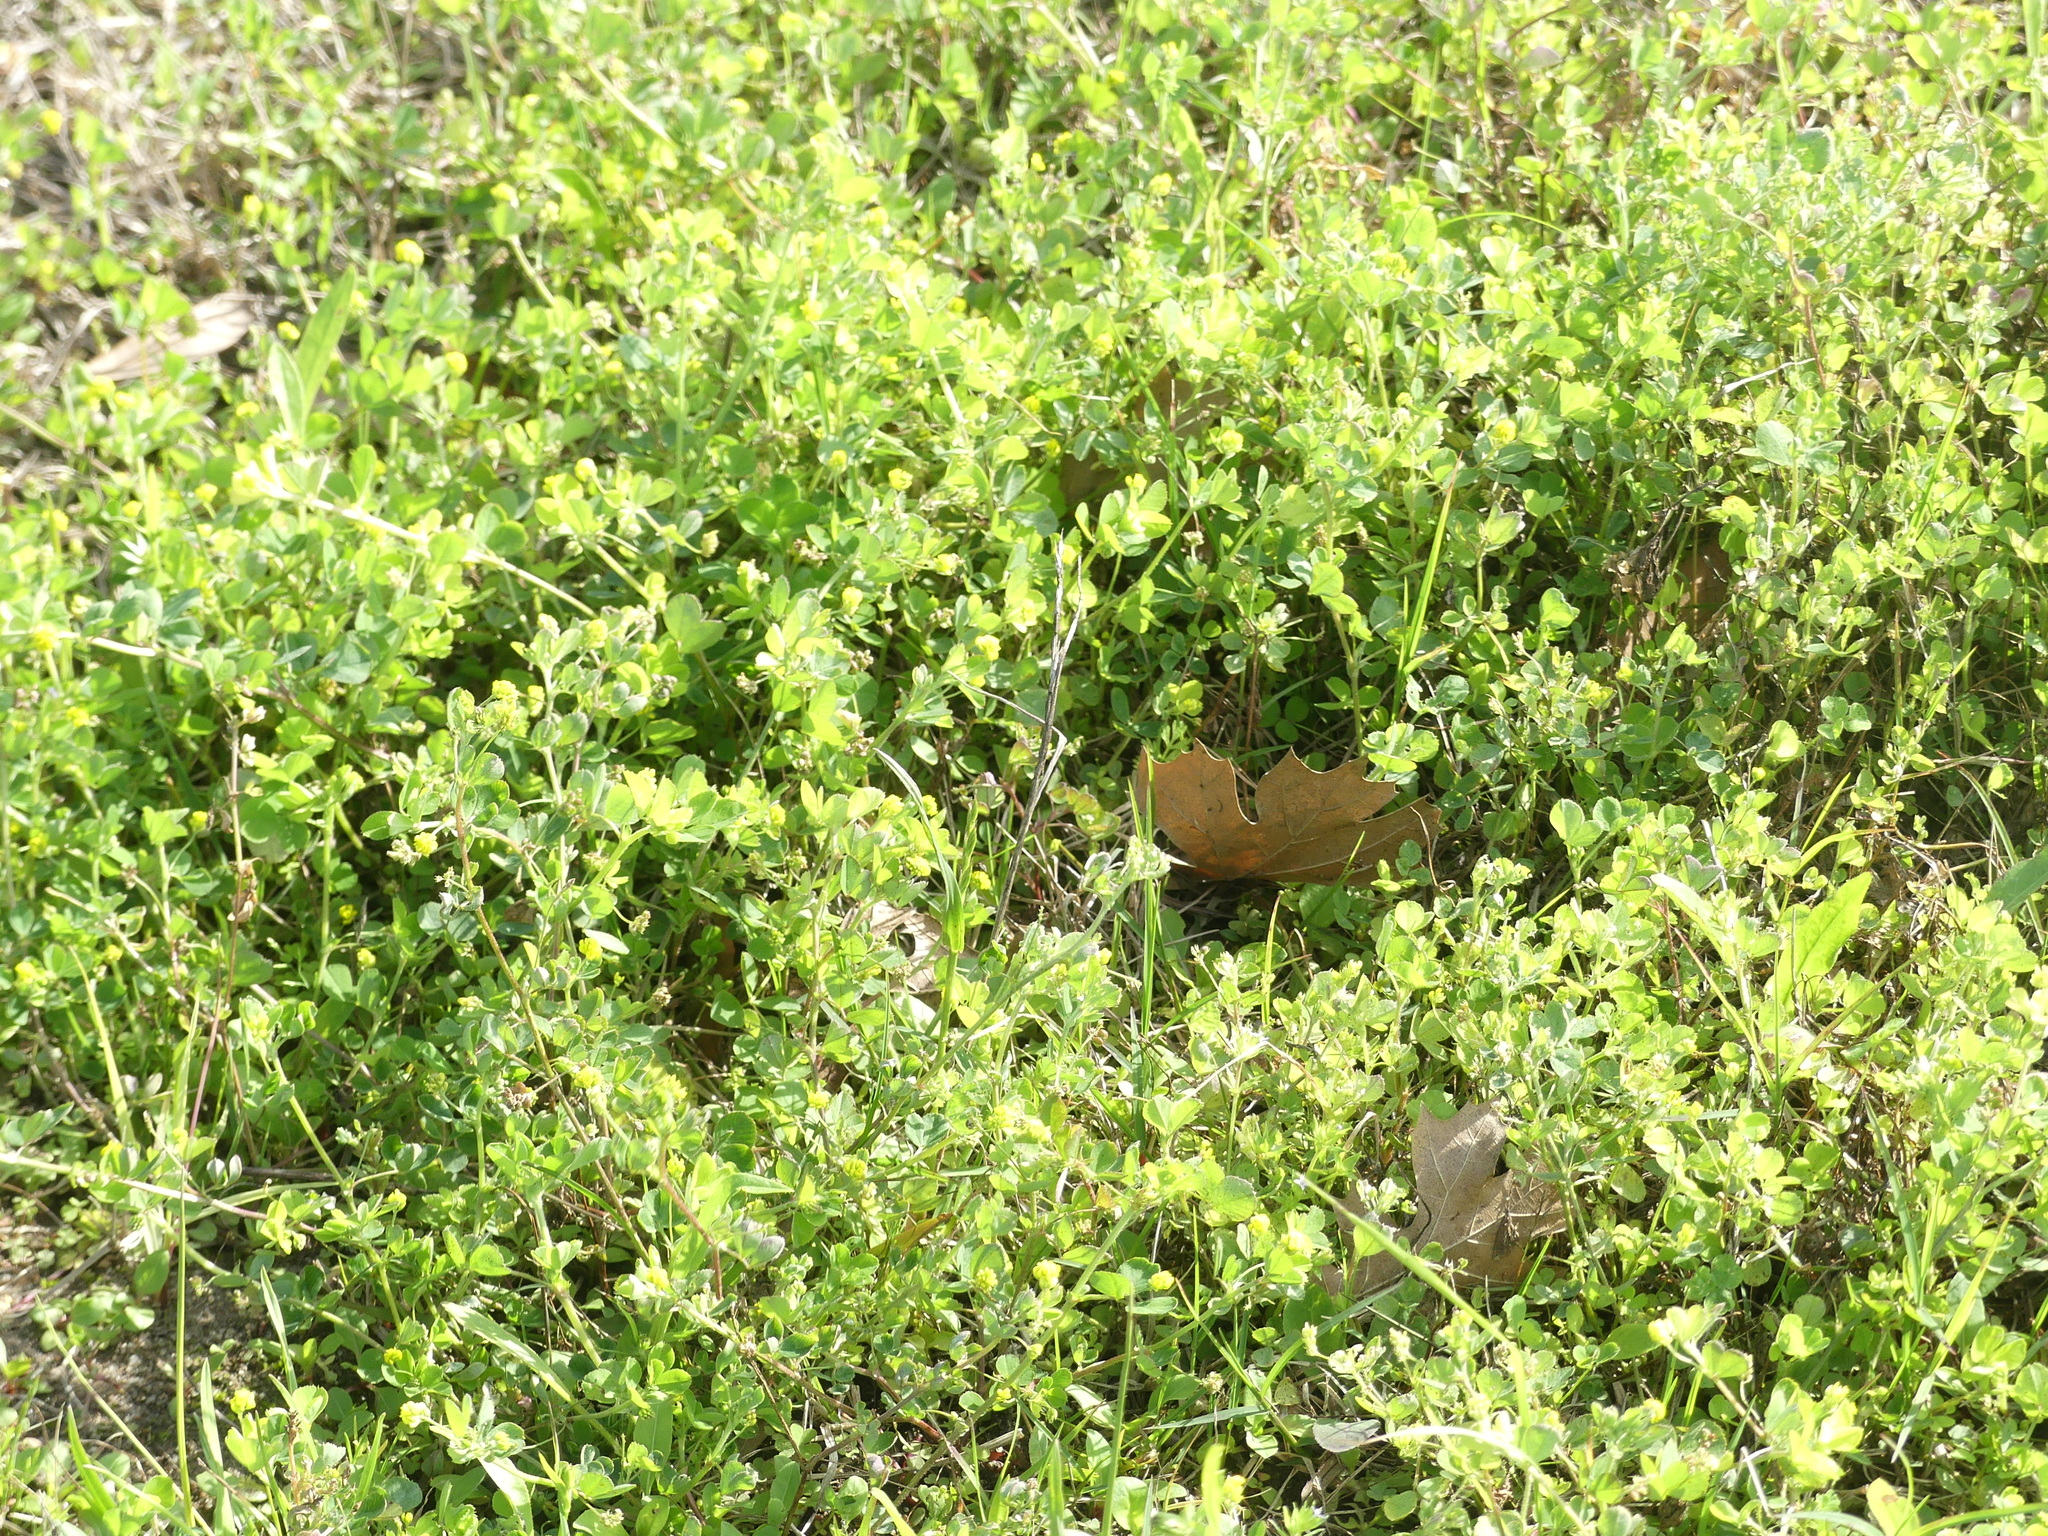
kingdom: Plantae
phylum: Tracheophyta
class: Magnoliopsida
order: Fabales
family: Fabaceae
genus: Medicago
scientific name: Medicago lupulina
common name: Black medick
